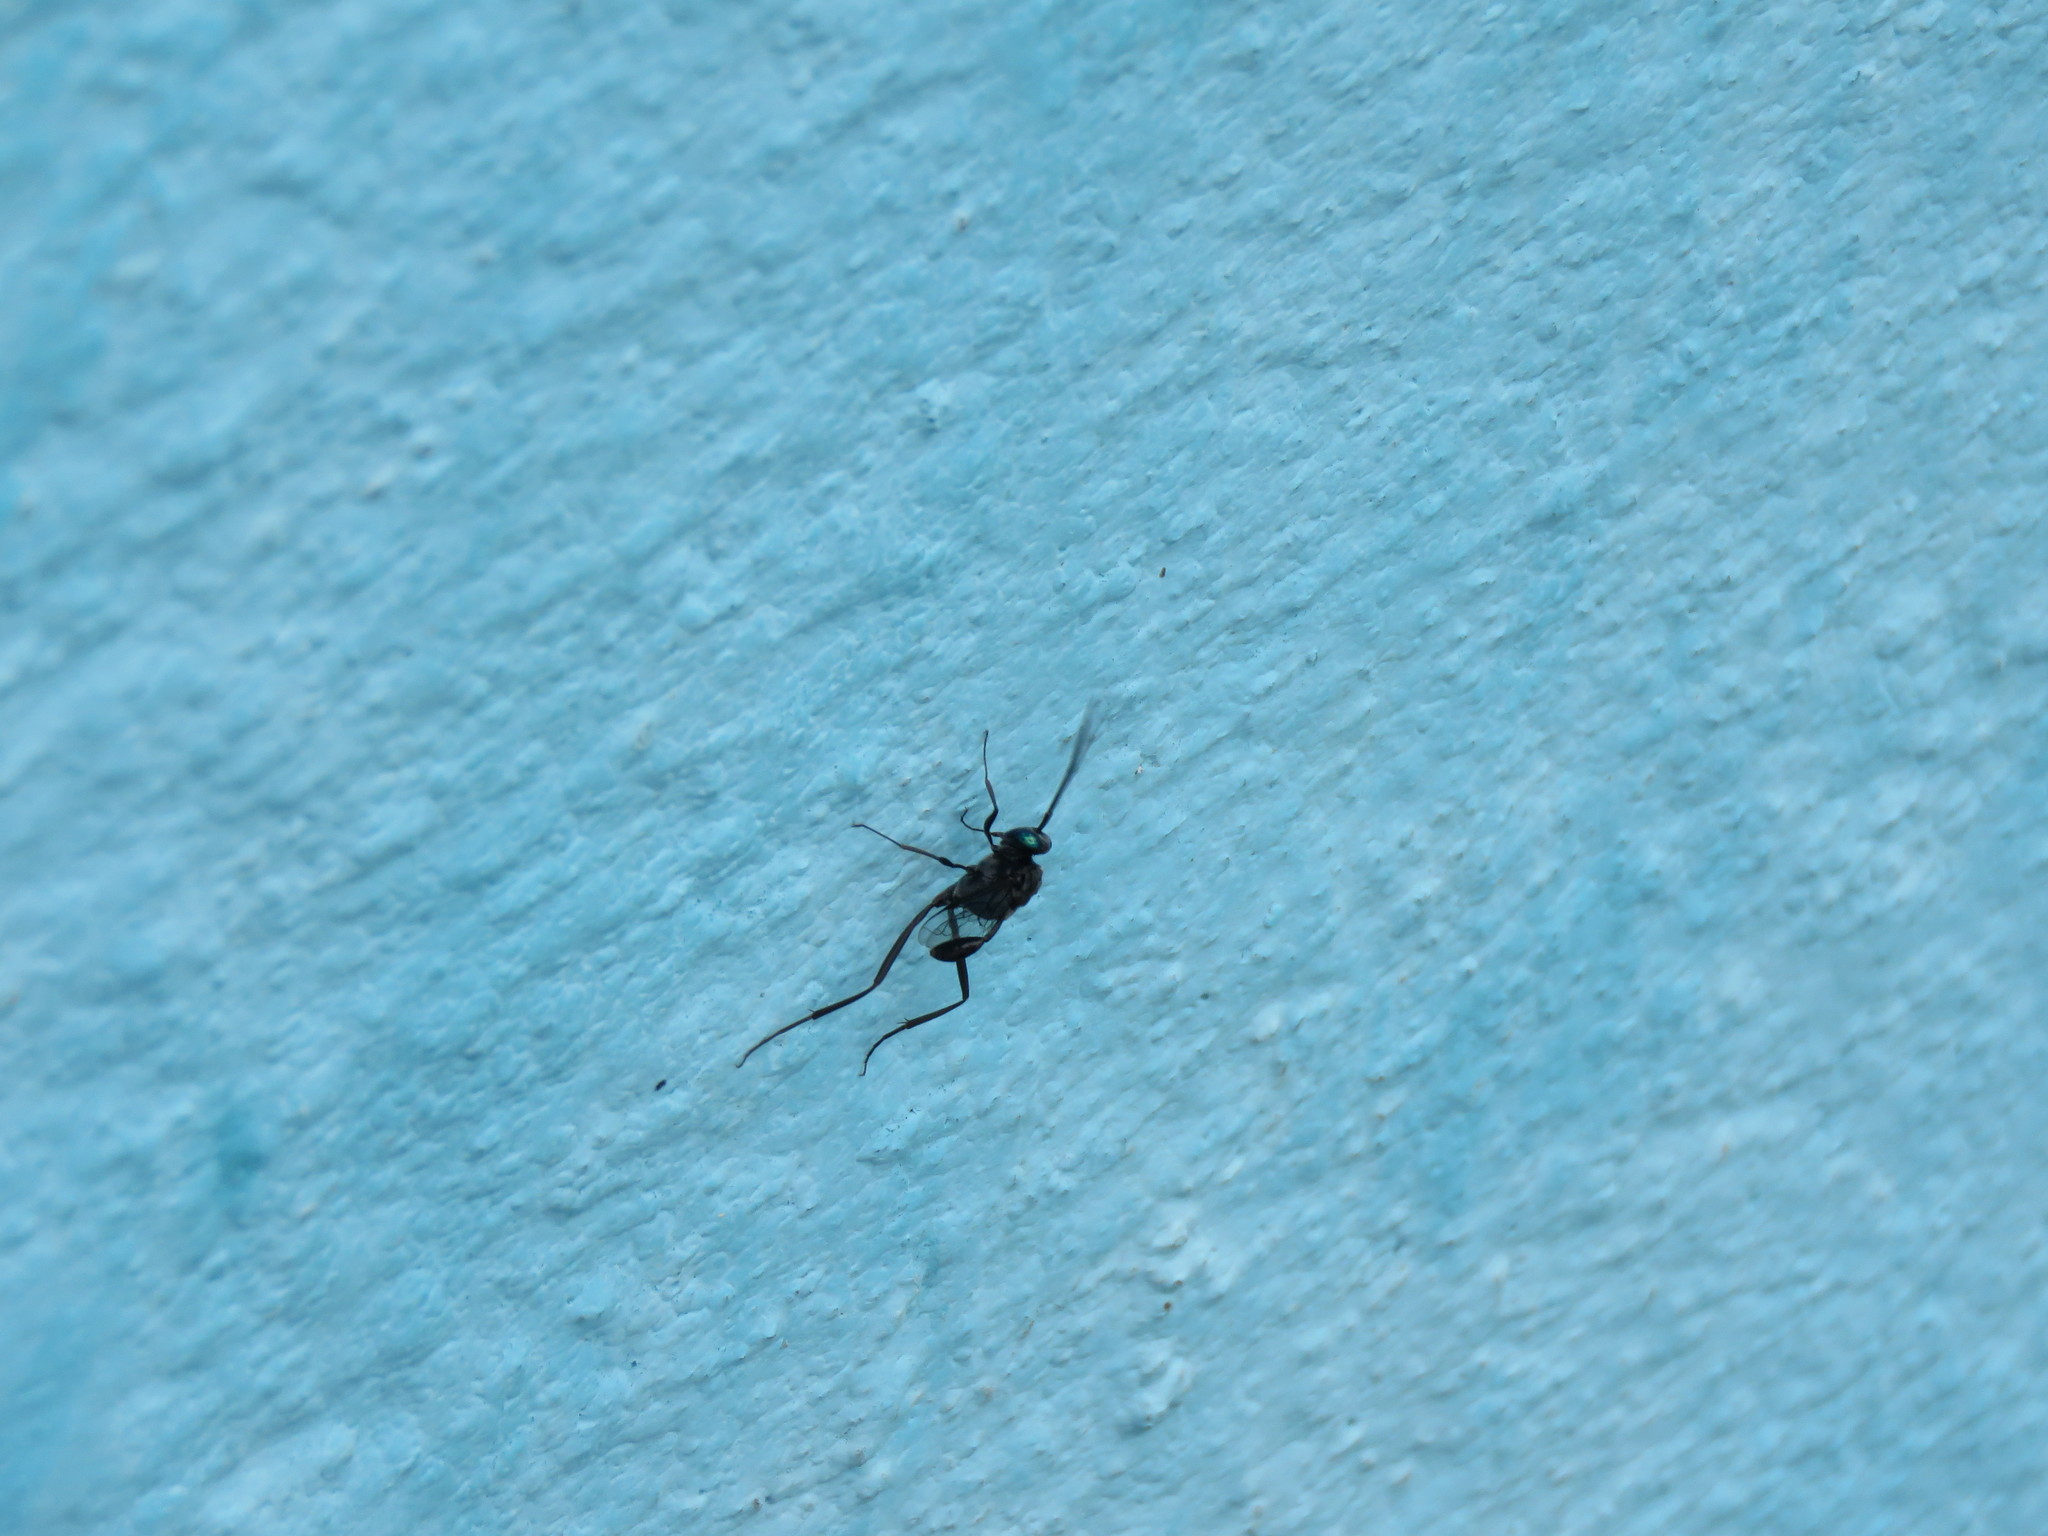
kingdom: Animalia
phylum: Arthropoda
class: Insecta
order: Hymenoptera
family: Evaniidae
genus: Evania
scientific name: Evania appendigaster
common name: Ensign wasp
